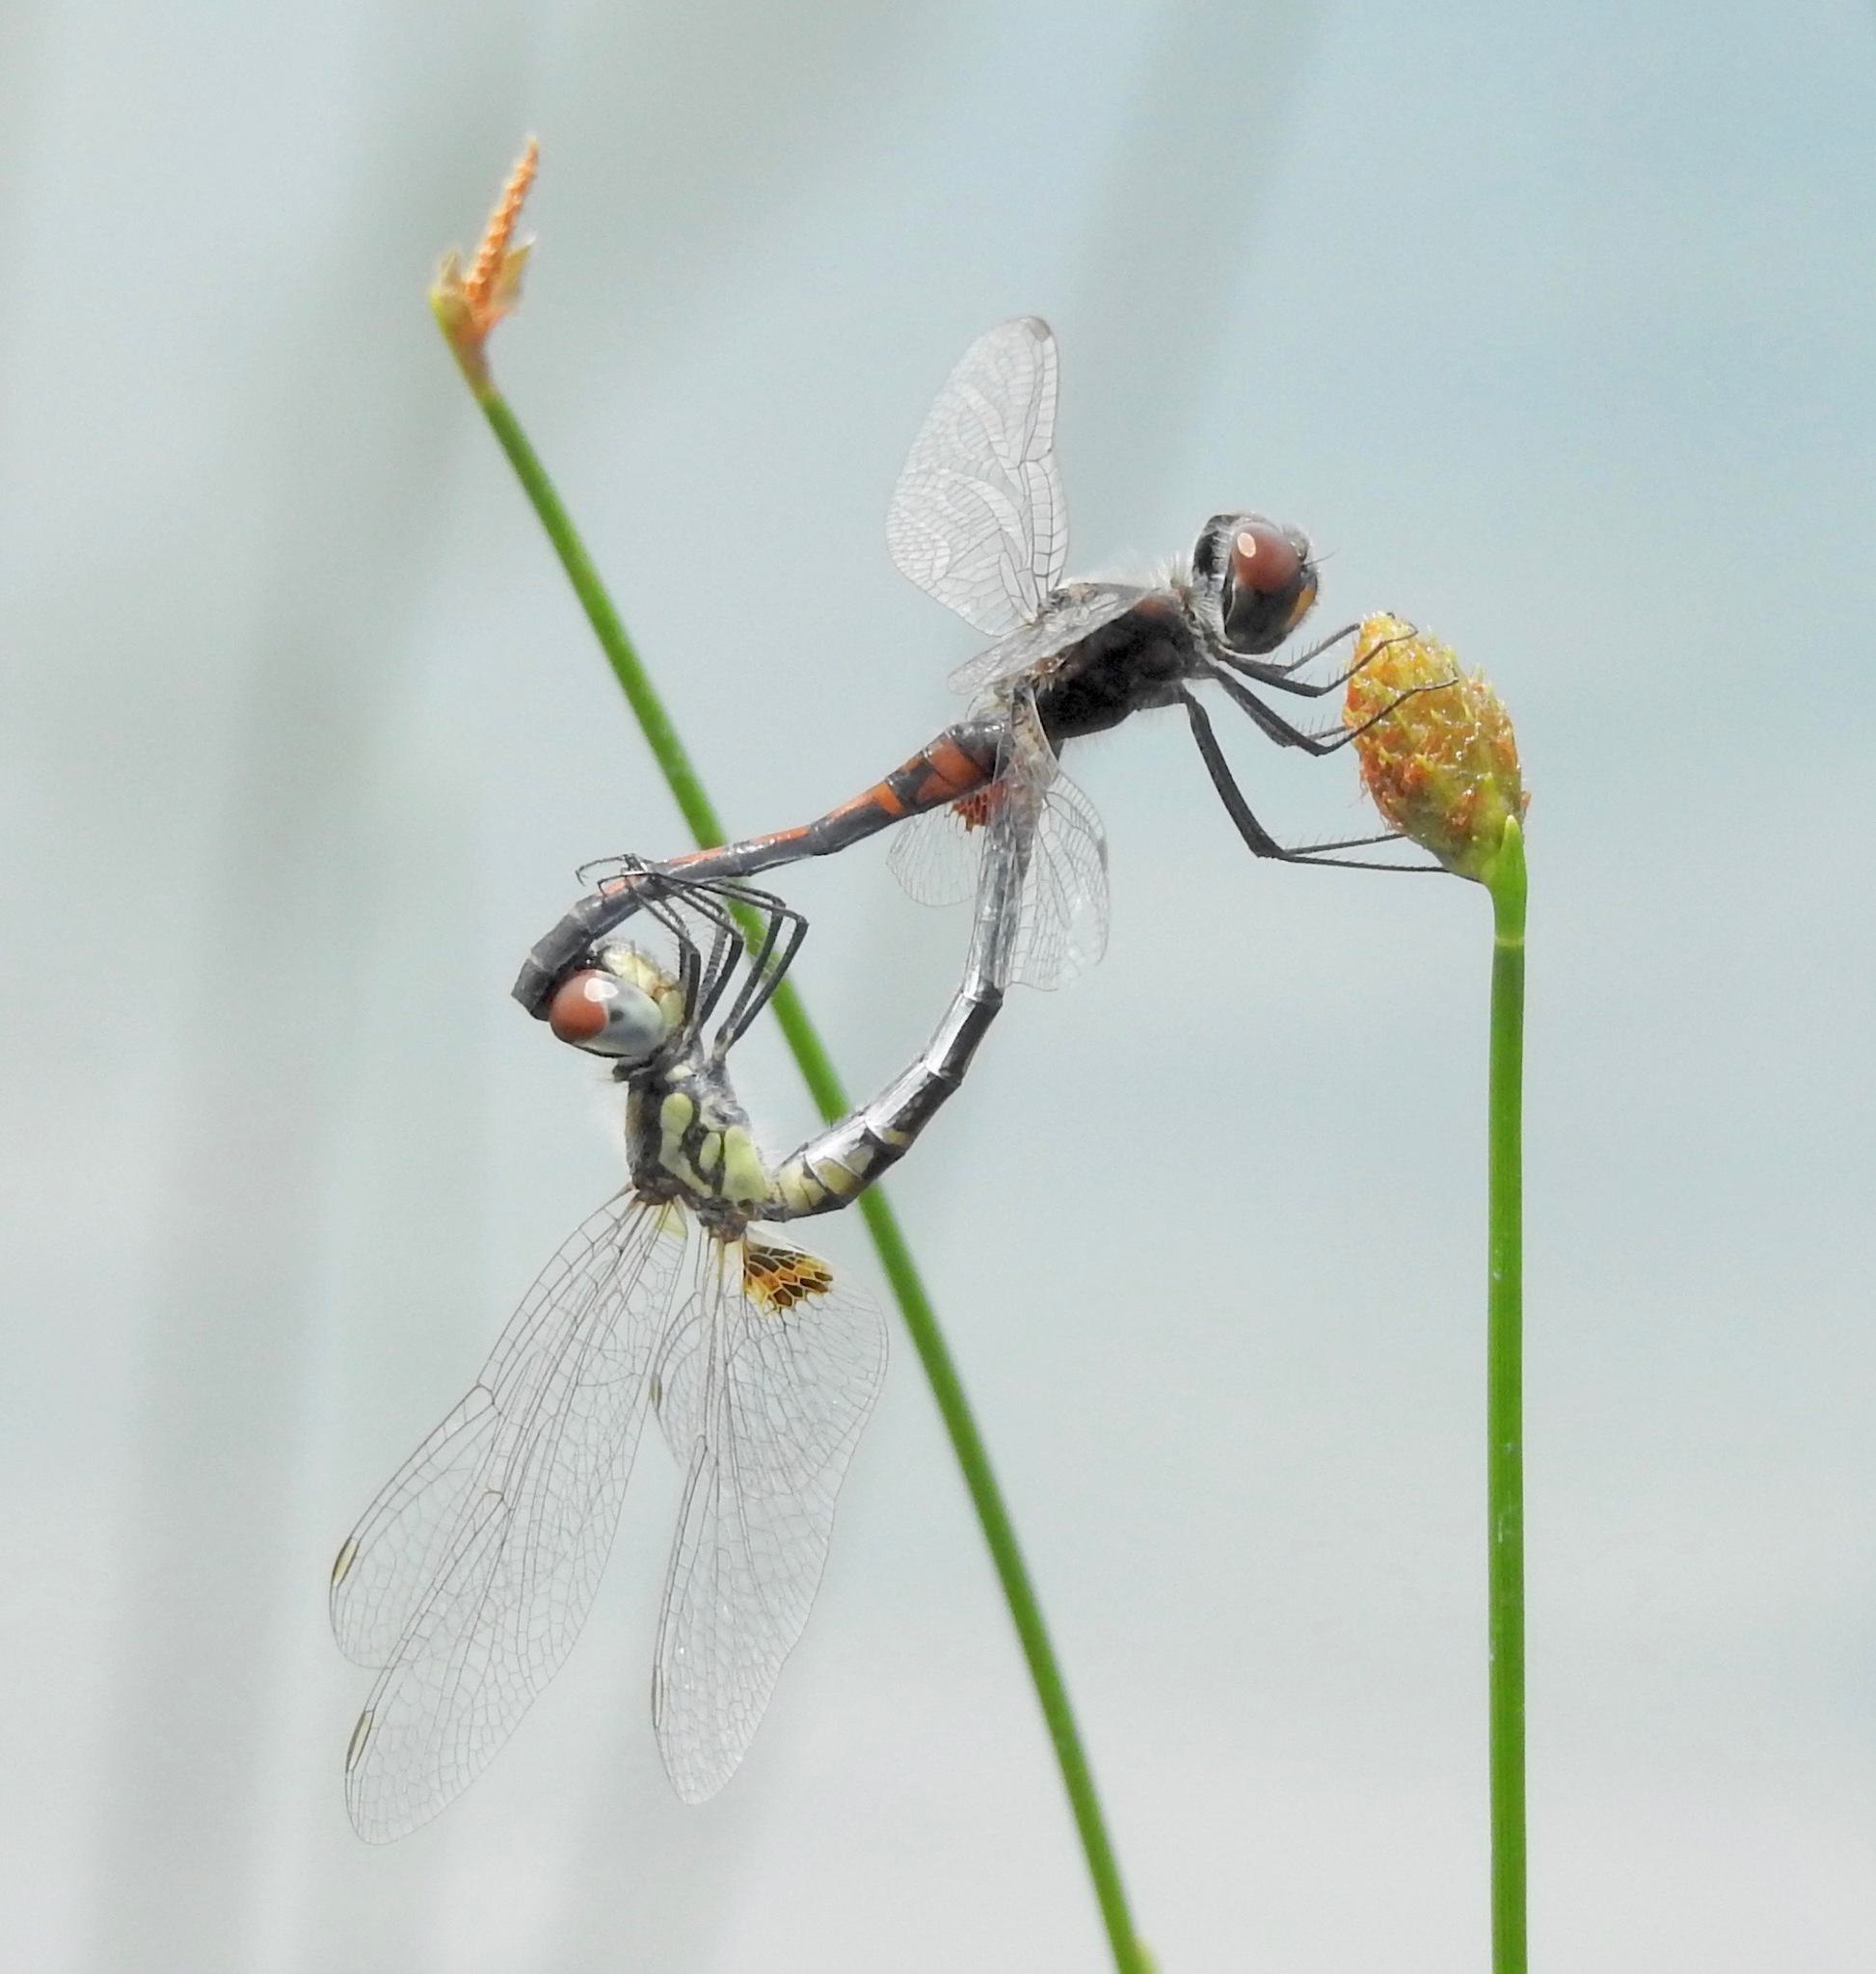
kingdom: Animalia
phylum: Arthropoda
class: Insecta
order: Odonata
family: Libellulidae
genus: Celithemis
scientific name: Celithemis ornata
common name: Ornate pennant
